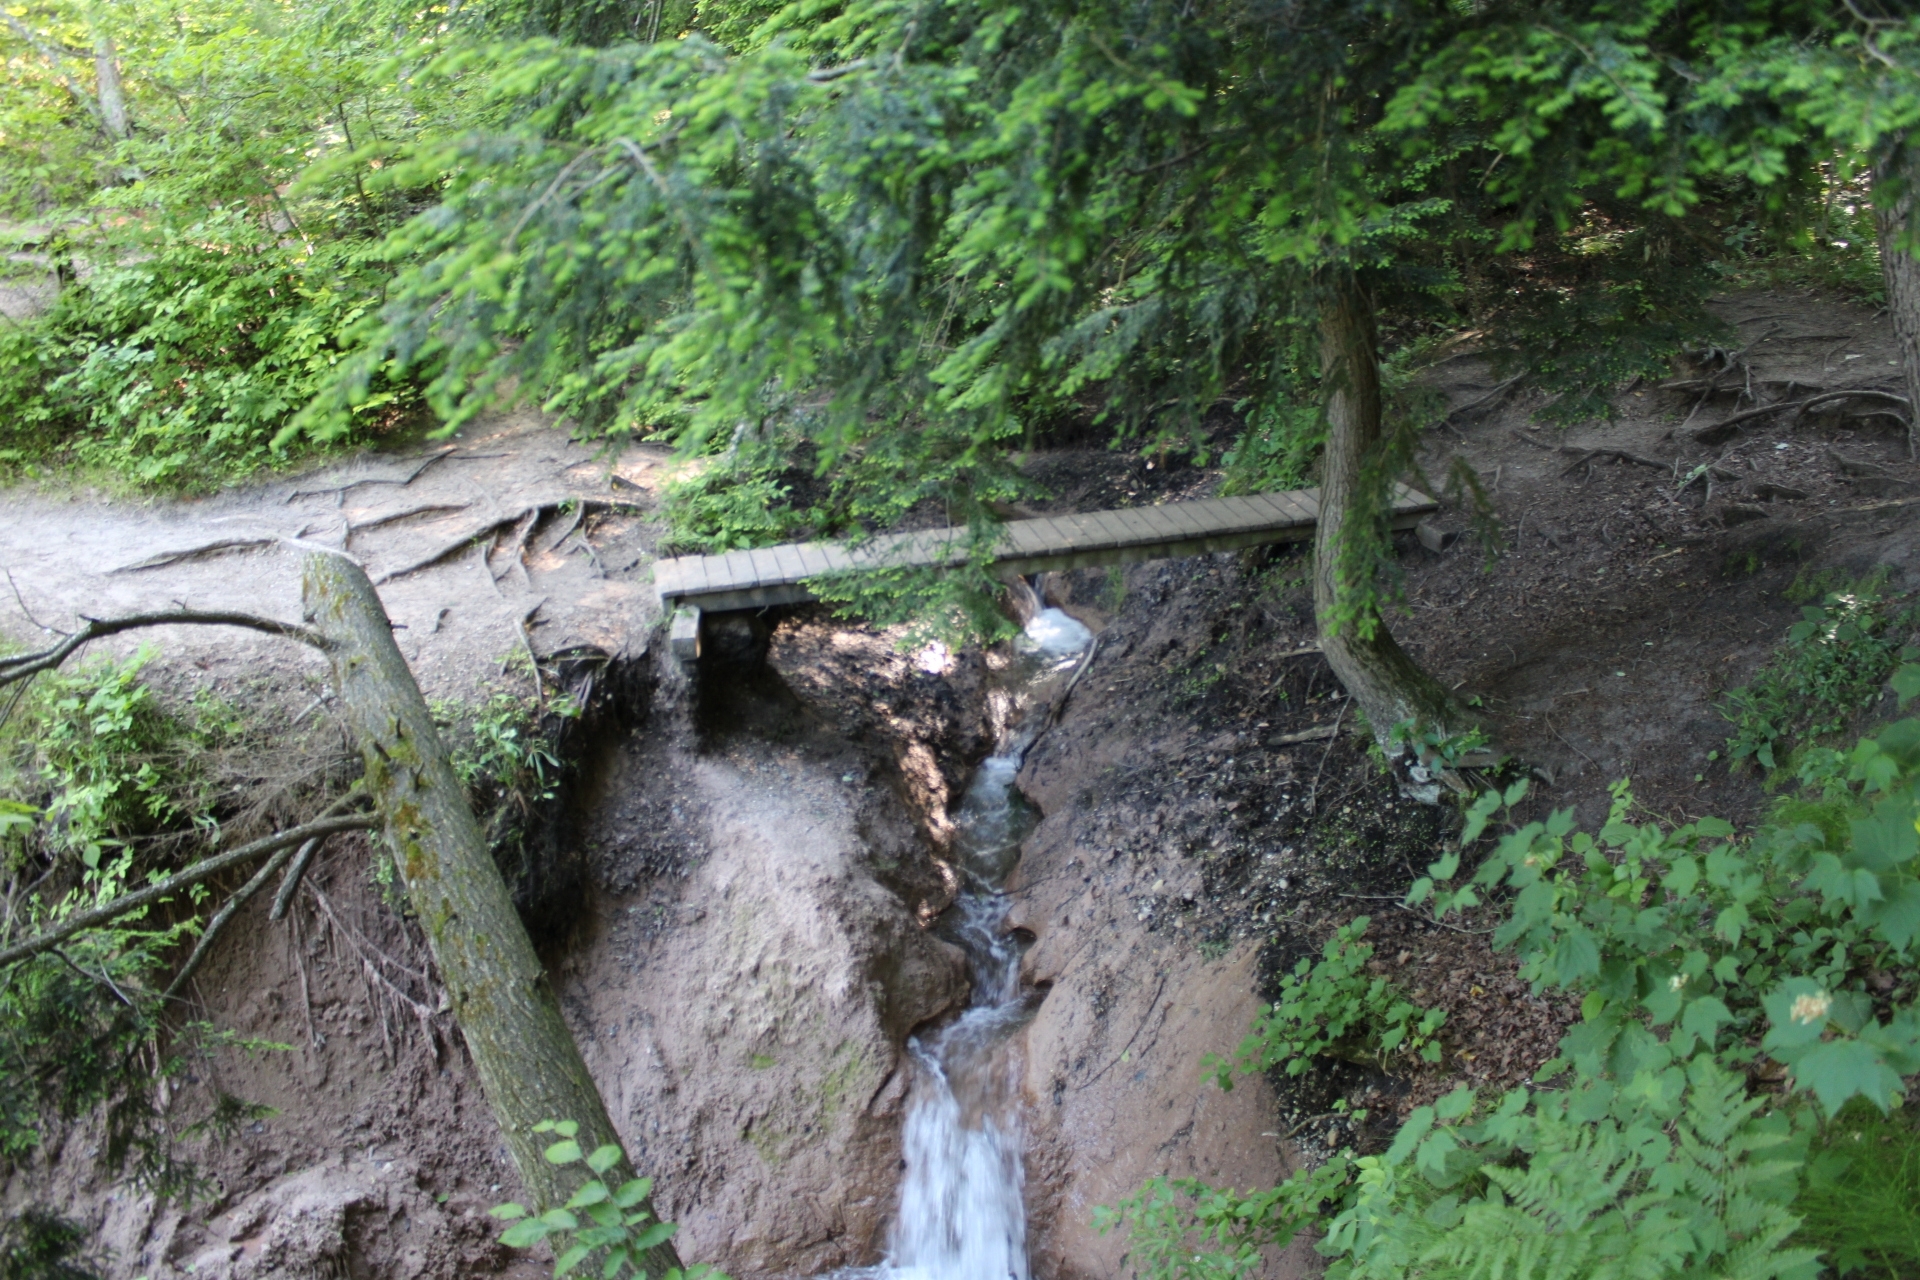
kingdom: Plantae
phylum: Tracheophyta
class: Pinopsida
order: Pinales
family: Pinaceae
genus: Tsuga
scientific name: Tsuga canadensis
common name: Eastern hemlock
